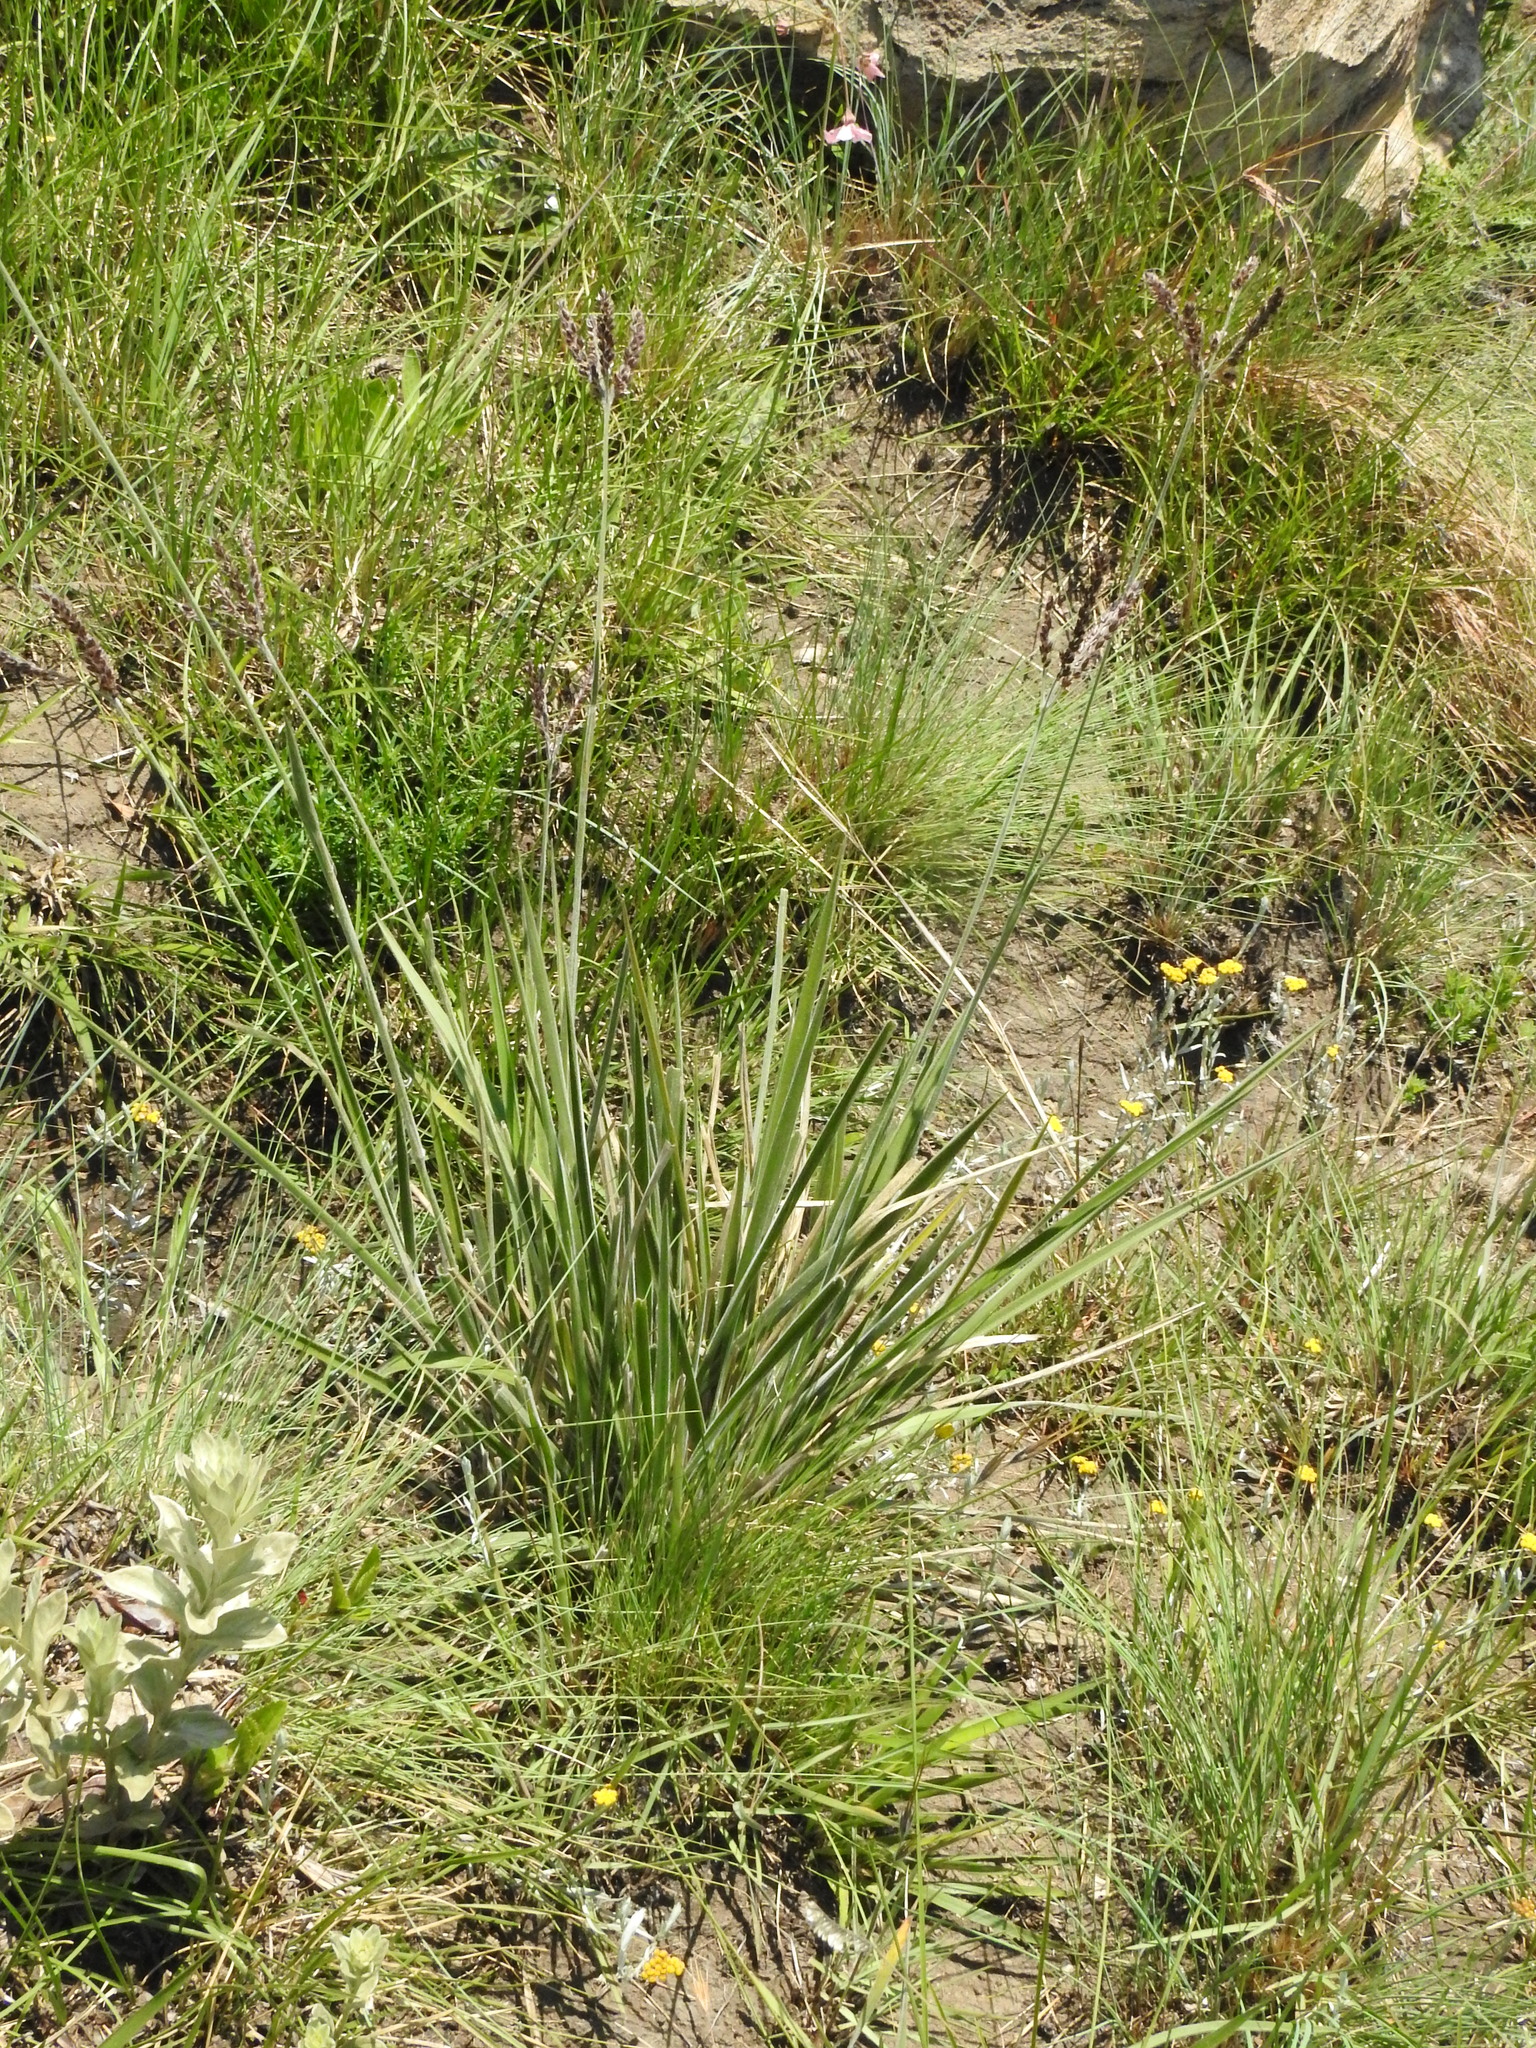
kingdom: Plantae
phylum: Tracheophyta
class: Liliopsida
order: Poales
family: Poaceae
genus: Alloteropsis
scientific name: Alloteropsis semialata
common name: Cockatoo grass
